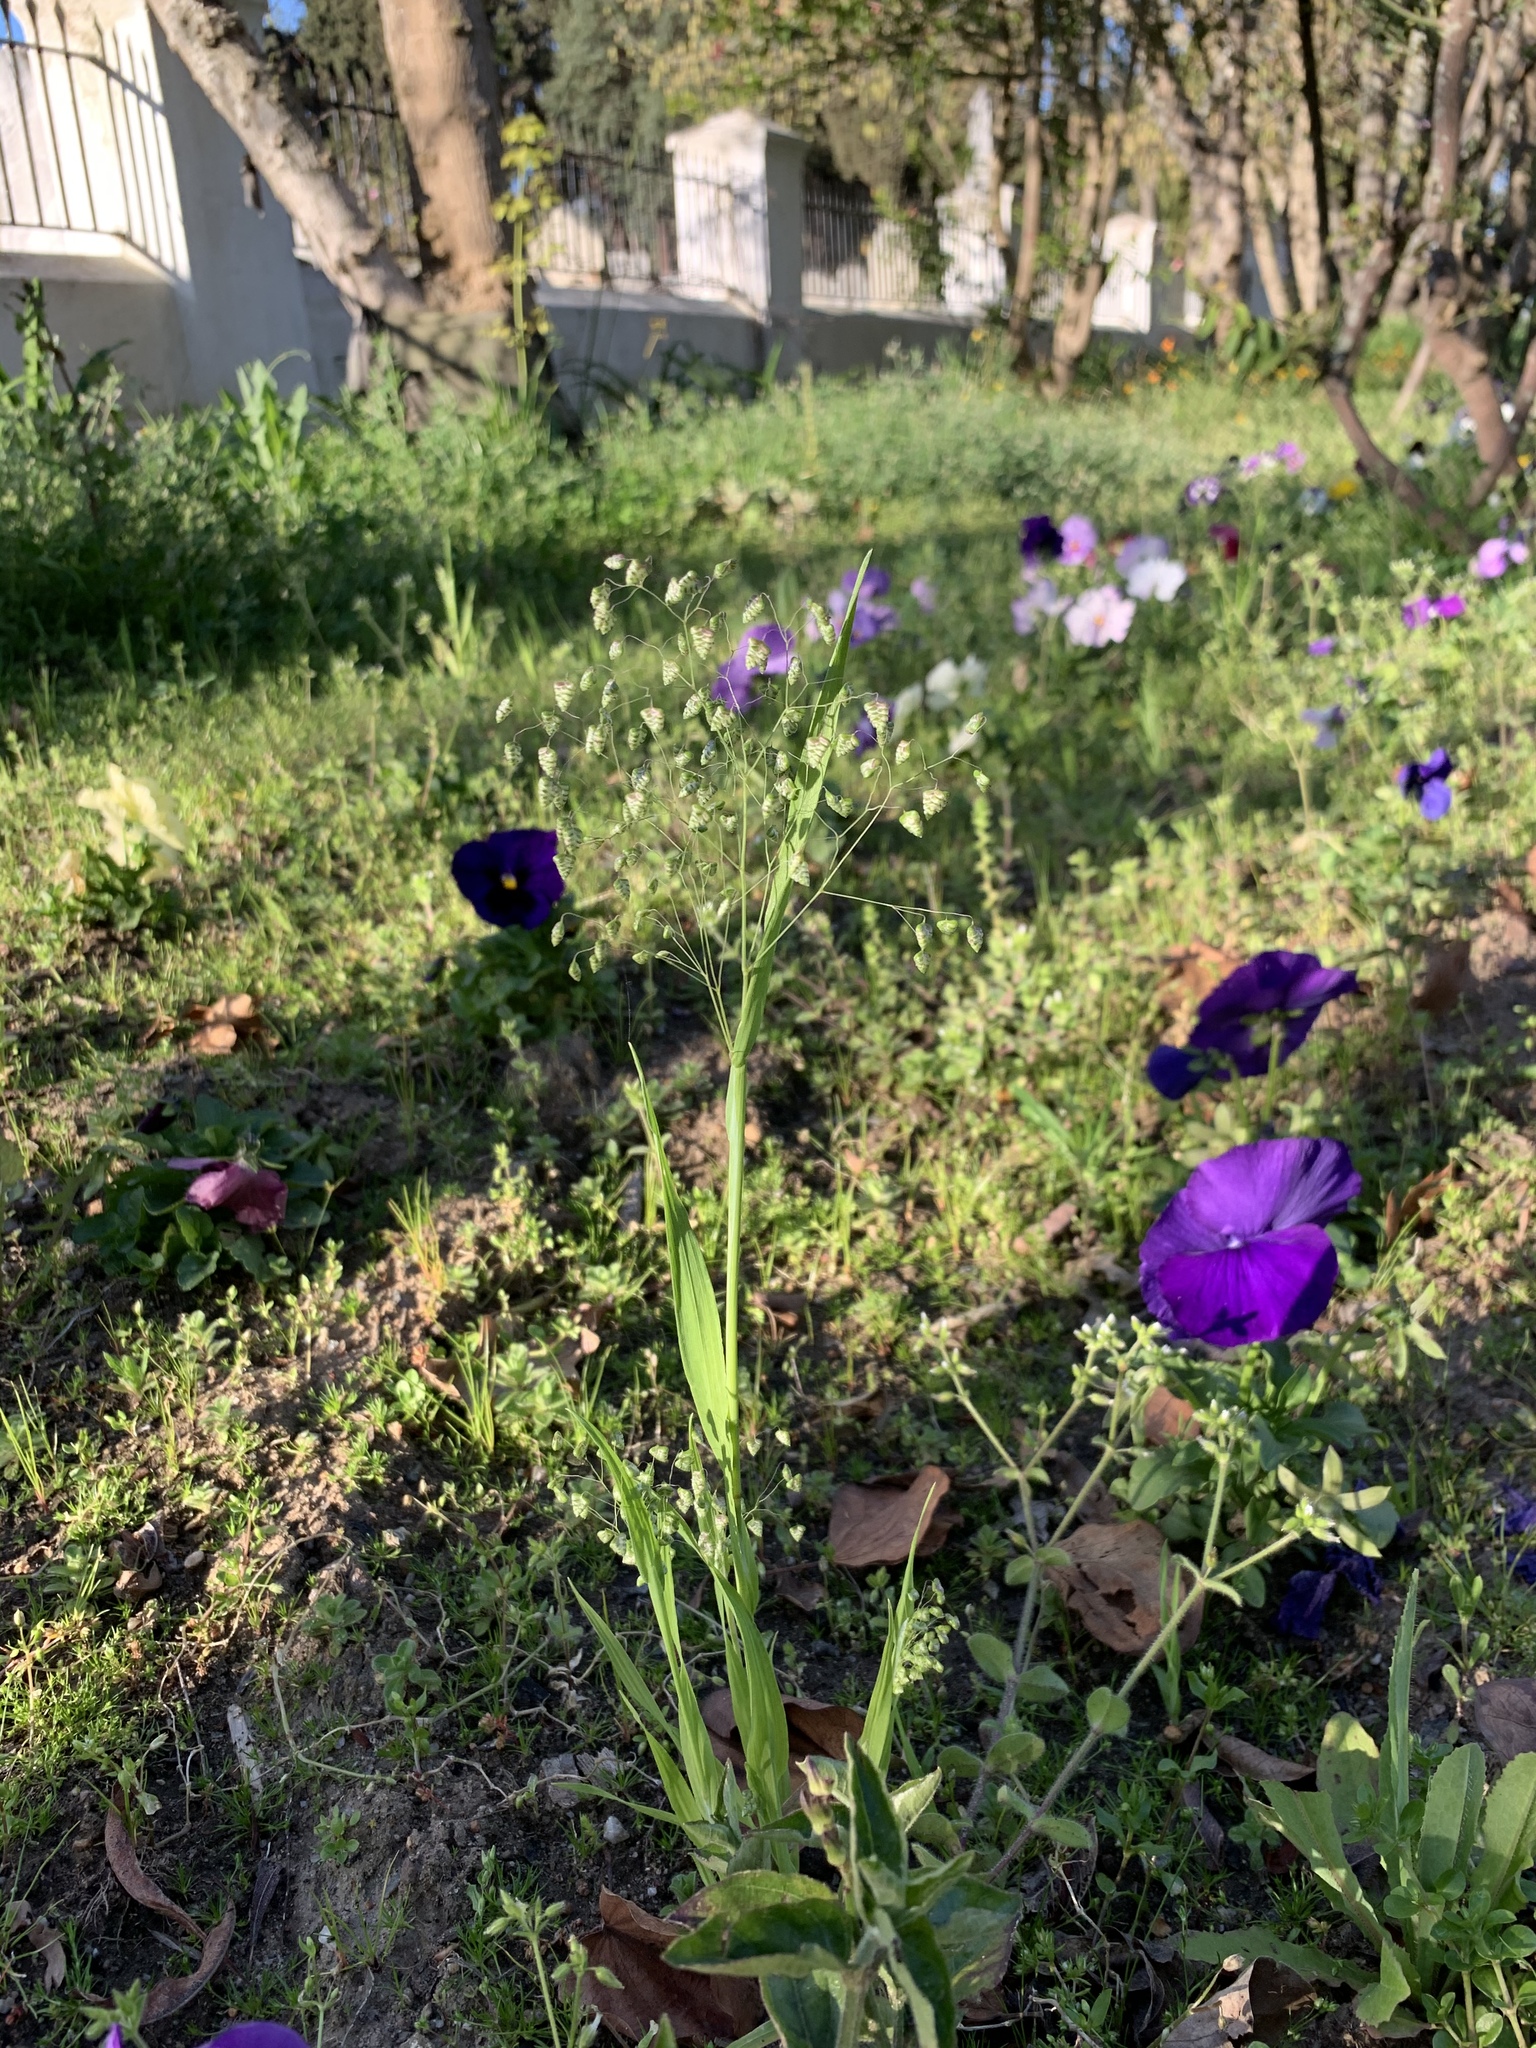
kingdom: Plantae
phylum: Tracheophyta
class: Liliopsida
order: Poales
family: Poaceae
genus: Briza
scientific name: Briza minor
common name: Lesser quaking-grass
